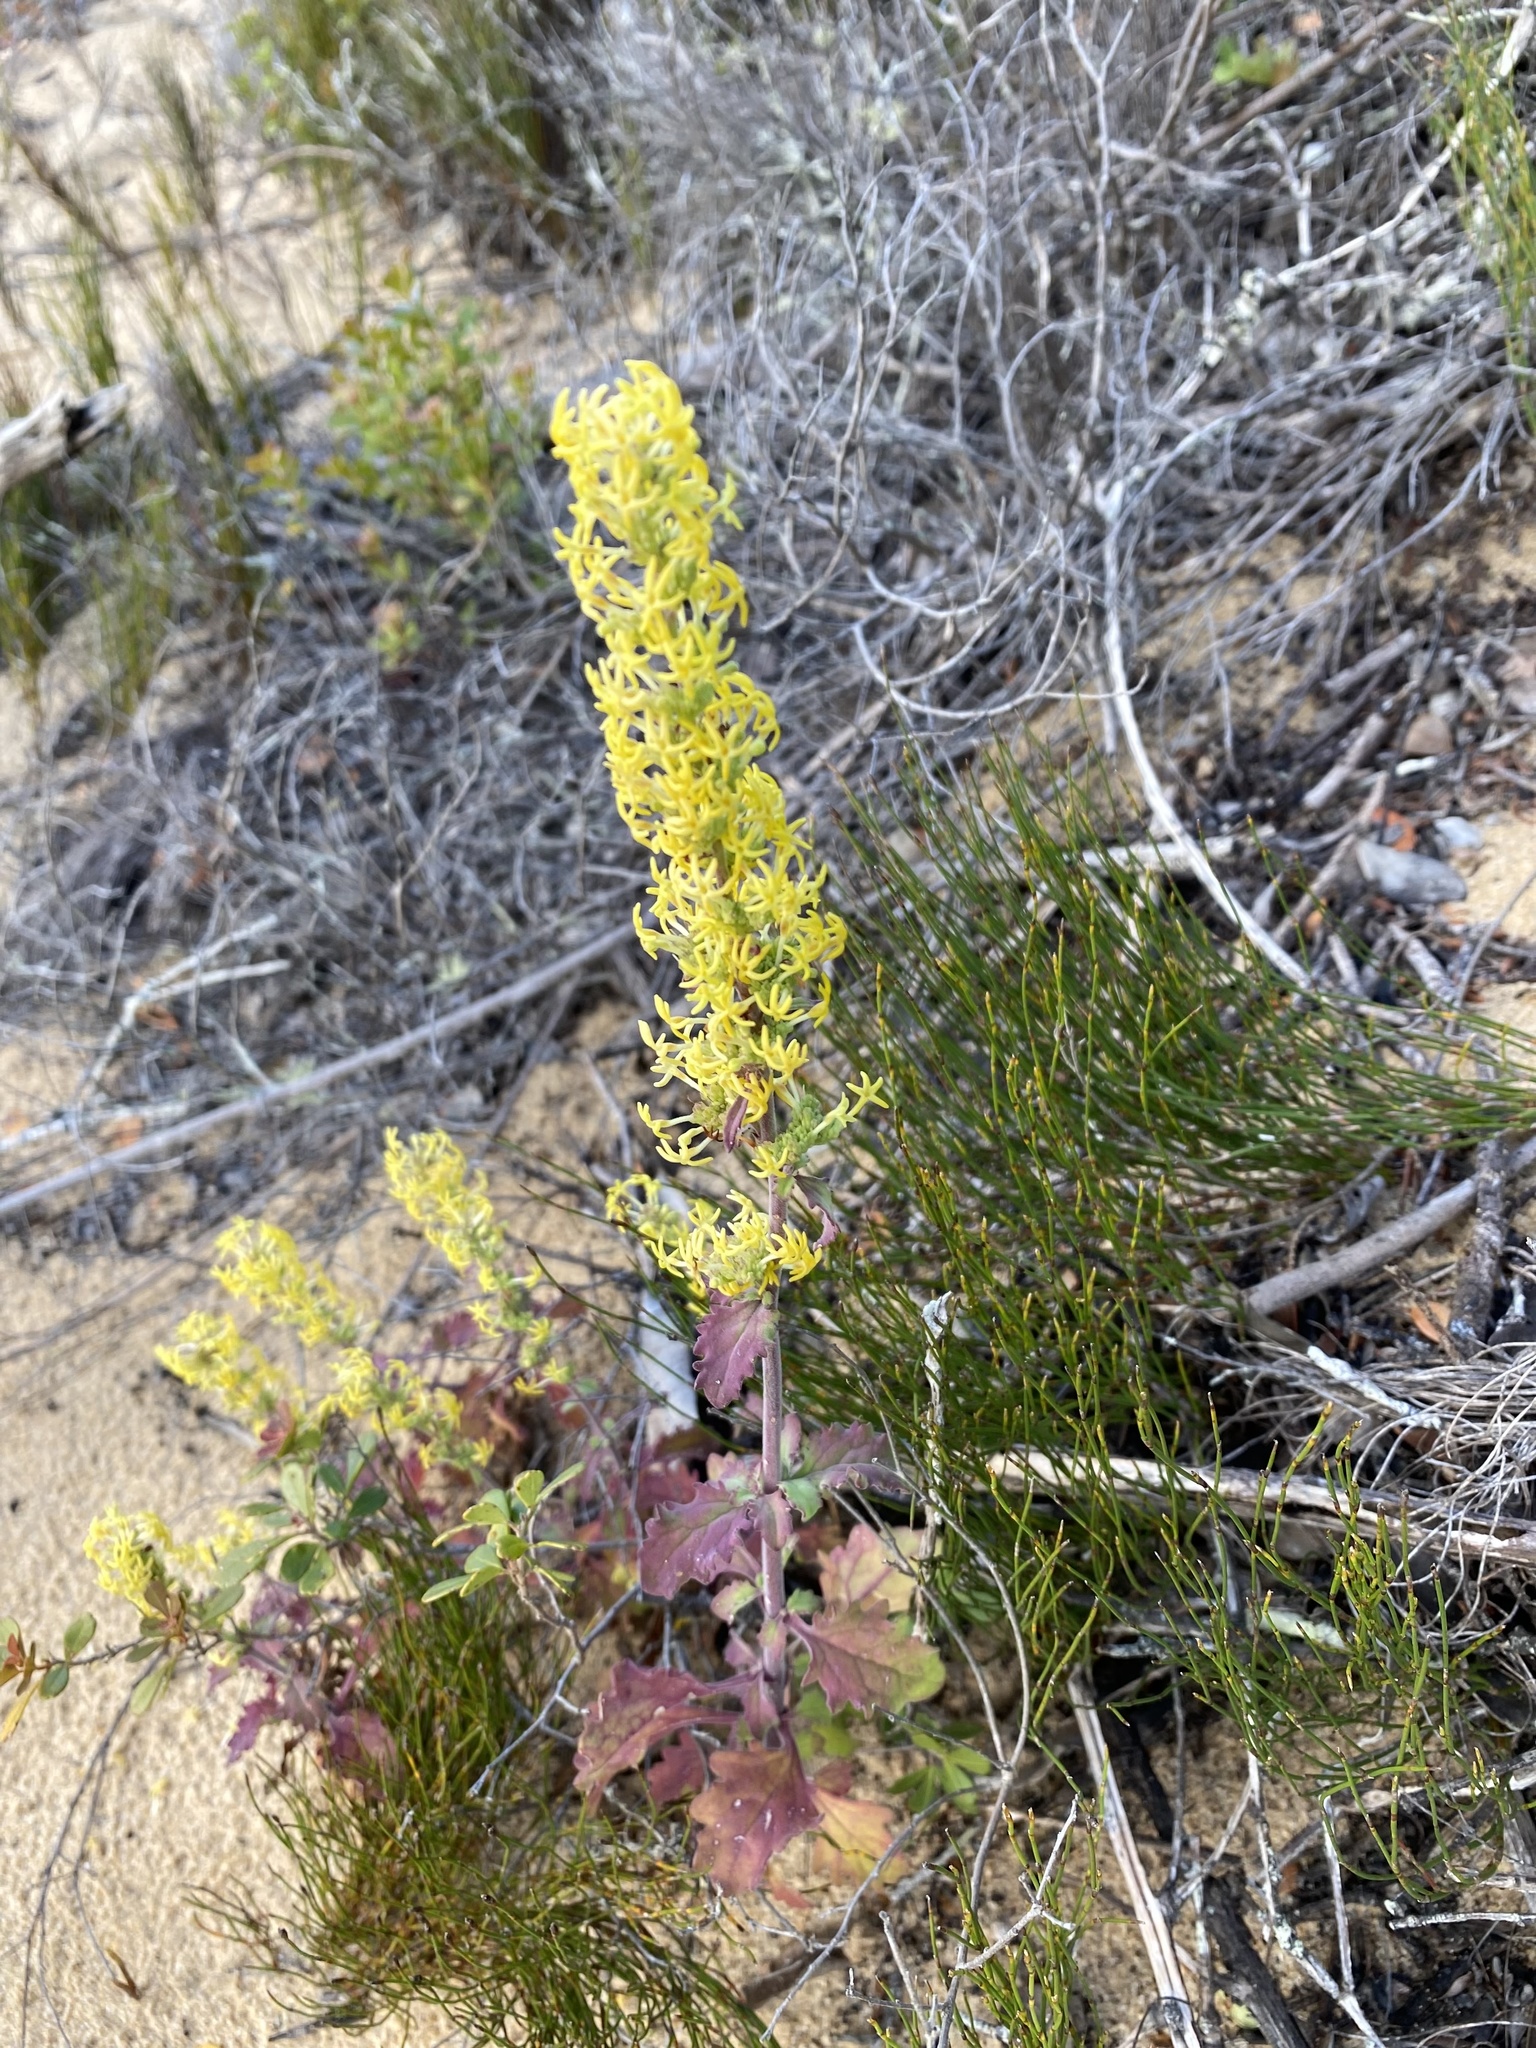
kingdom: Plantae
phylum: Tracheophyta
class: Magnoliopsida
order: Lamiales
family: Scrophulariaceae
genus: Manulea
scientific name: Manulea thyrsiflora
